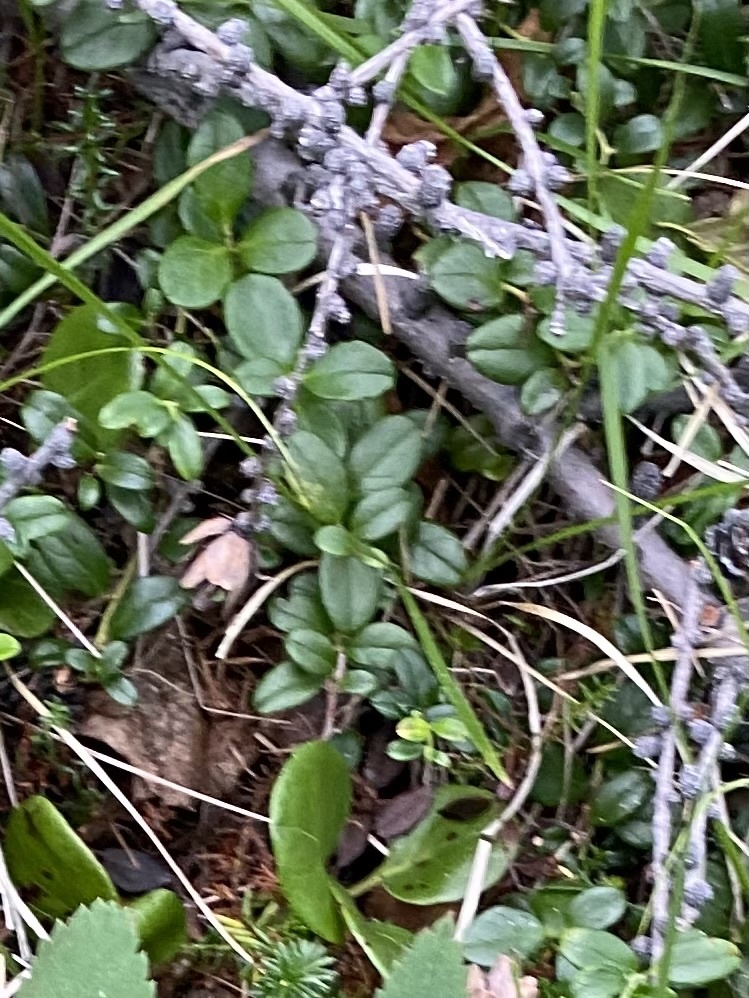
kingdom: Plantae
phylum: Tracheophyta
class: Magnoliopsida
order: Ericales
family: Ericaceae
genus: Vaccinium
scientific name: Vaccinium vitis-idaea
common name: Cowberry
